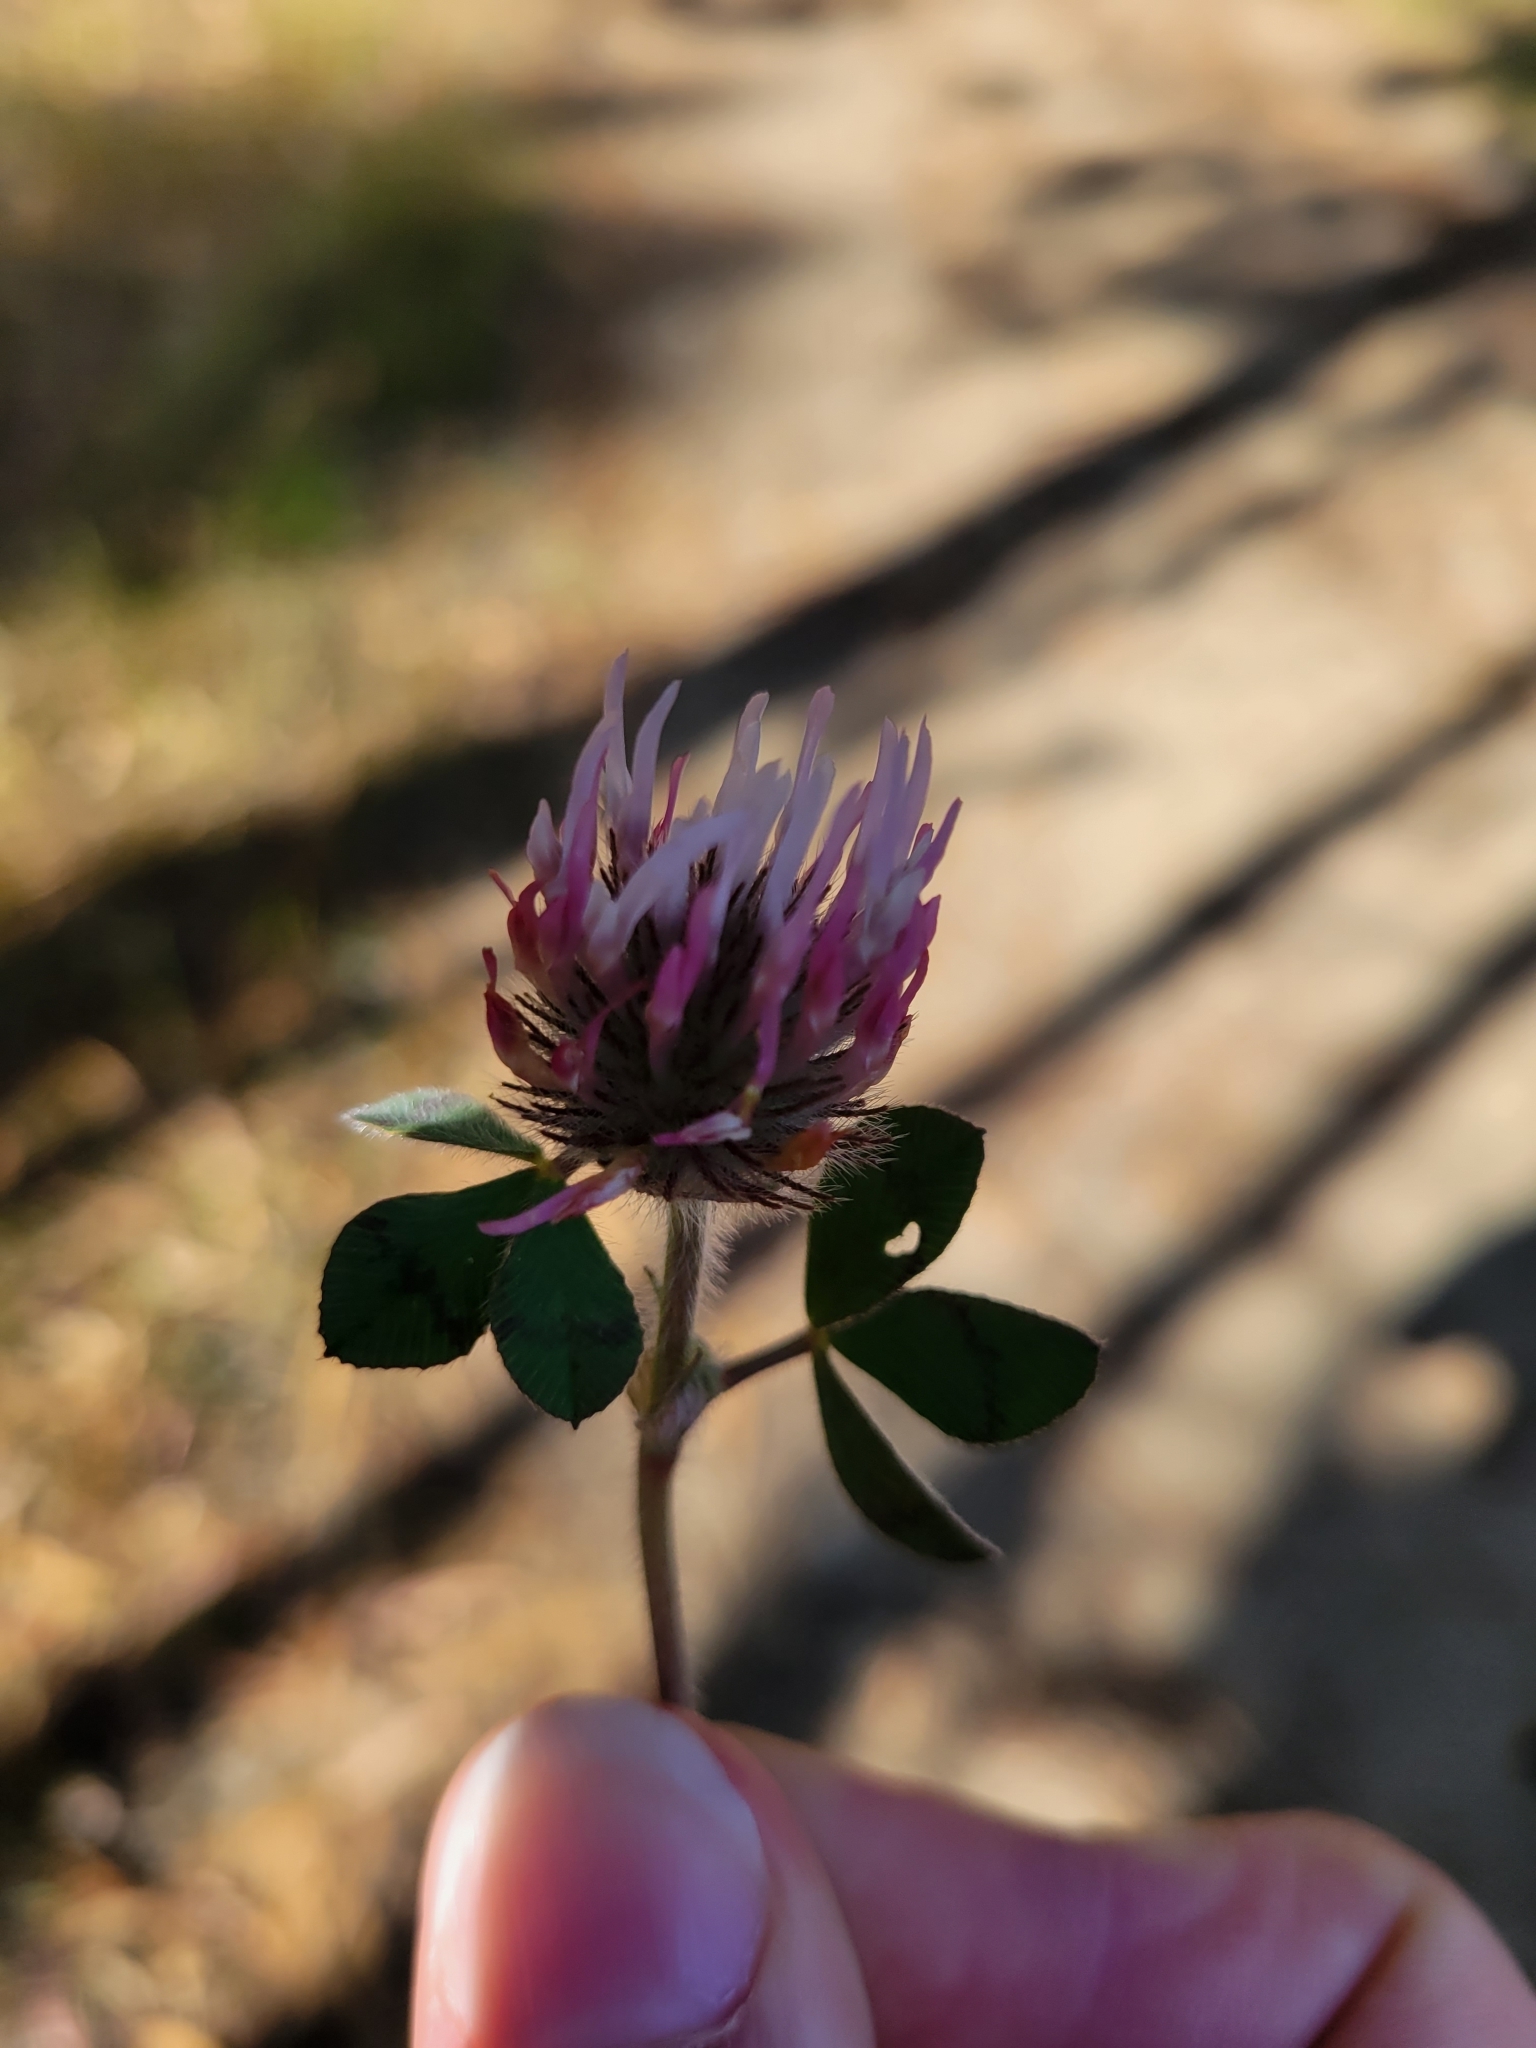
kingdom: Plantae
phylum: Tracheophyta
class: Magnoliopsida
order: Fabales
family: Fabaceae
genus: Trifolium
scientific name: Trifolium hirtum
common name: Rose clover
